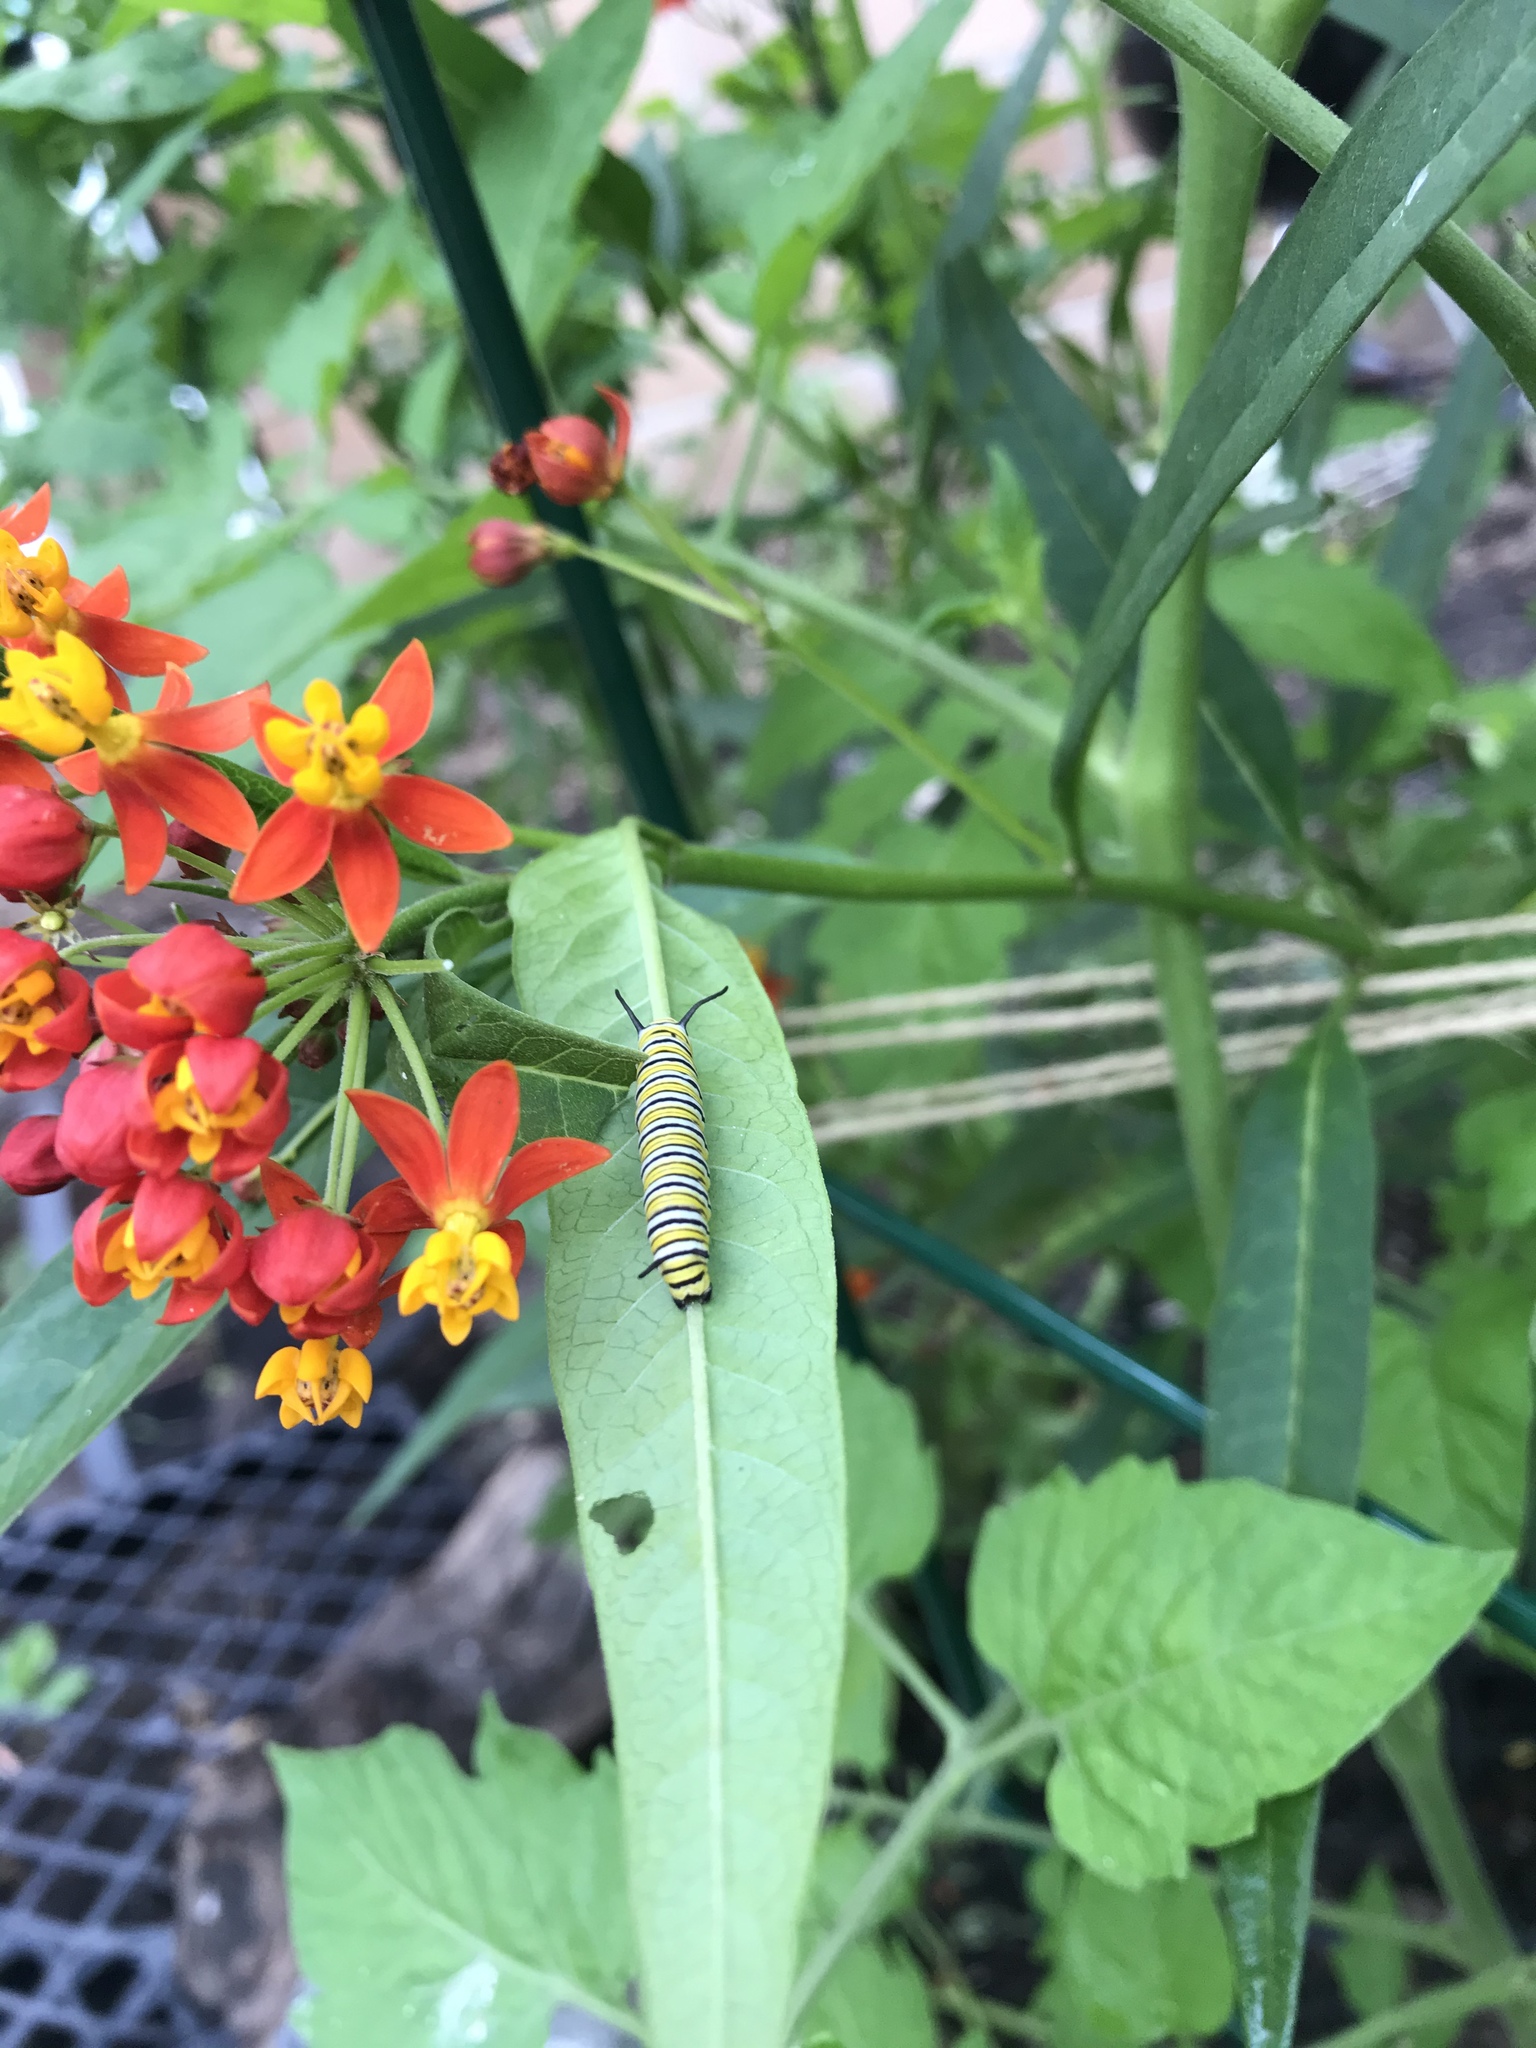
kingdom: Animalia
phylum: Arthropoda
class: Insecta
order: Lepidoptera
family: Nymphalidae
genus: Danaus
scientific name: Danaus plexippus
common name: Monarch
